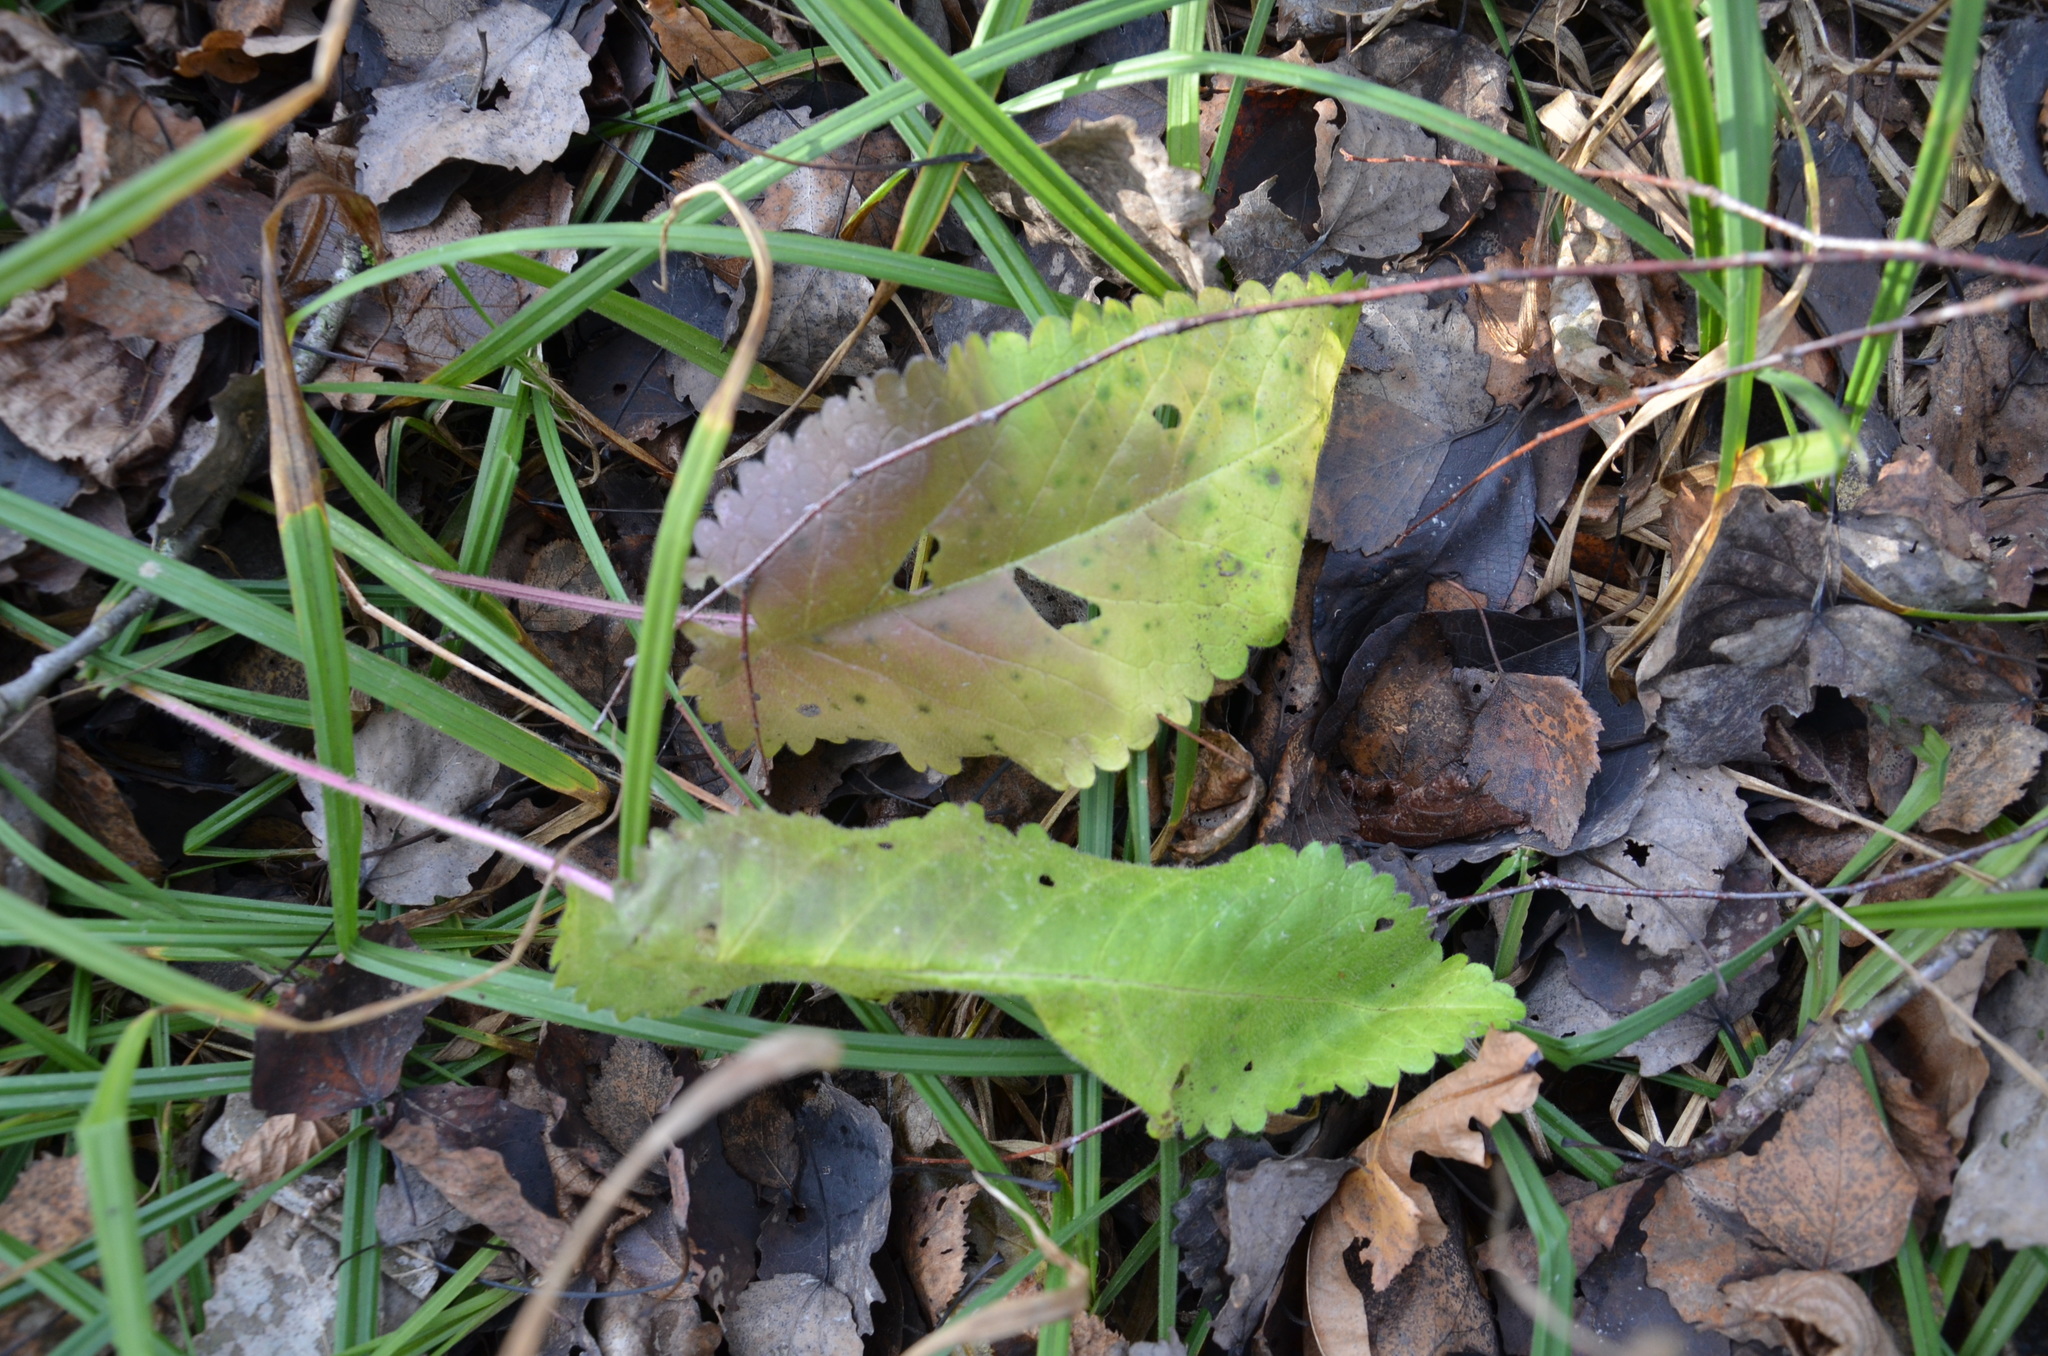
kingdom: Plantae
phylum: Tracheophyta
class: Magnoliopsida
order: Lamiales
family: Lamiaceae
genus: Betonica
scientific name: Betonica officinalis
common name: Bishop's-wort
